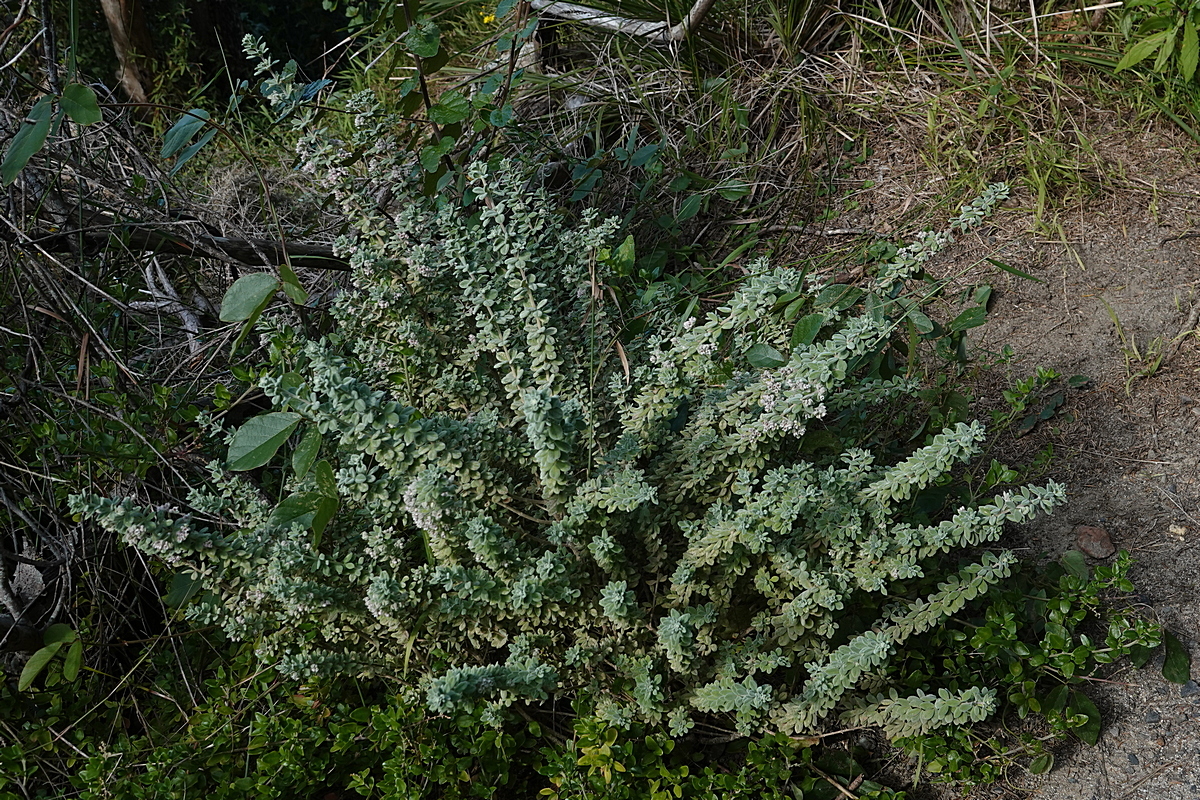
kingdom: Plantae
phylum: Tracheophyta
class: Magnoliopsida
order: Sapindales
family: Rutaceae
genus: Zieria
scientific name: Zieria littoralis
